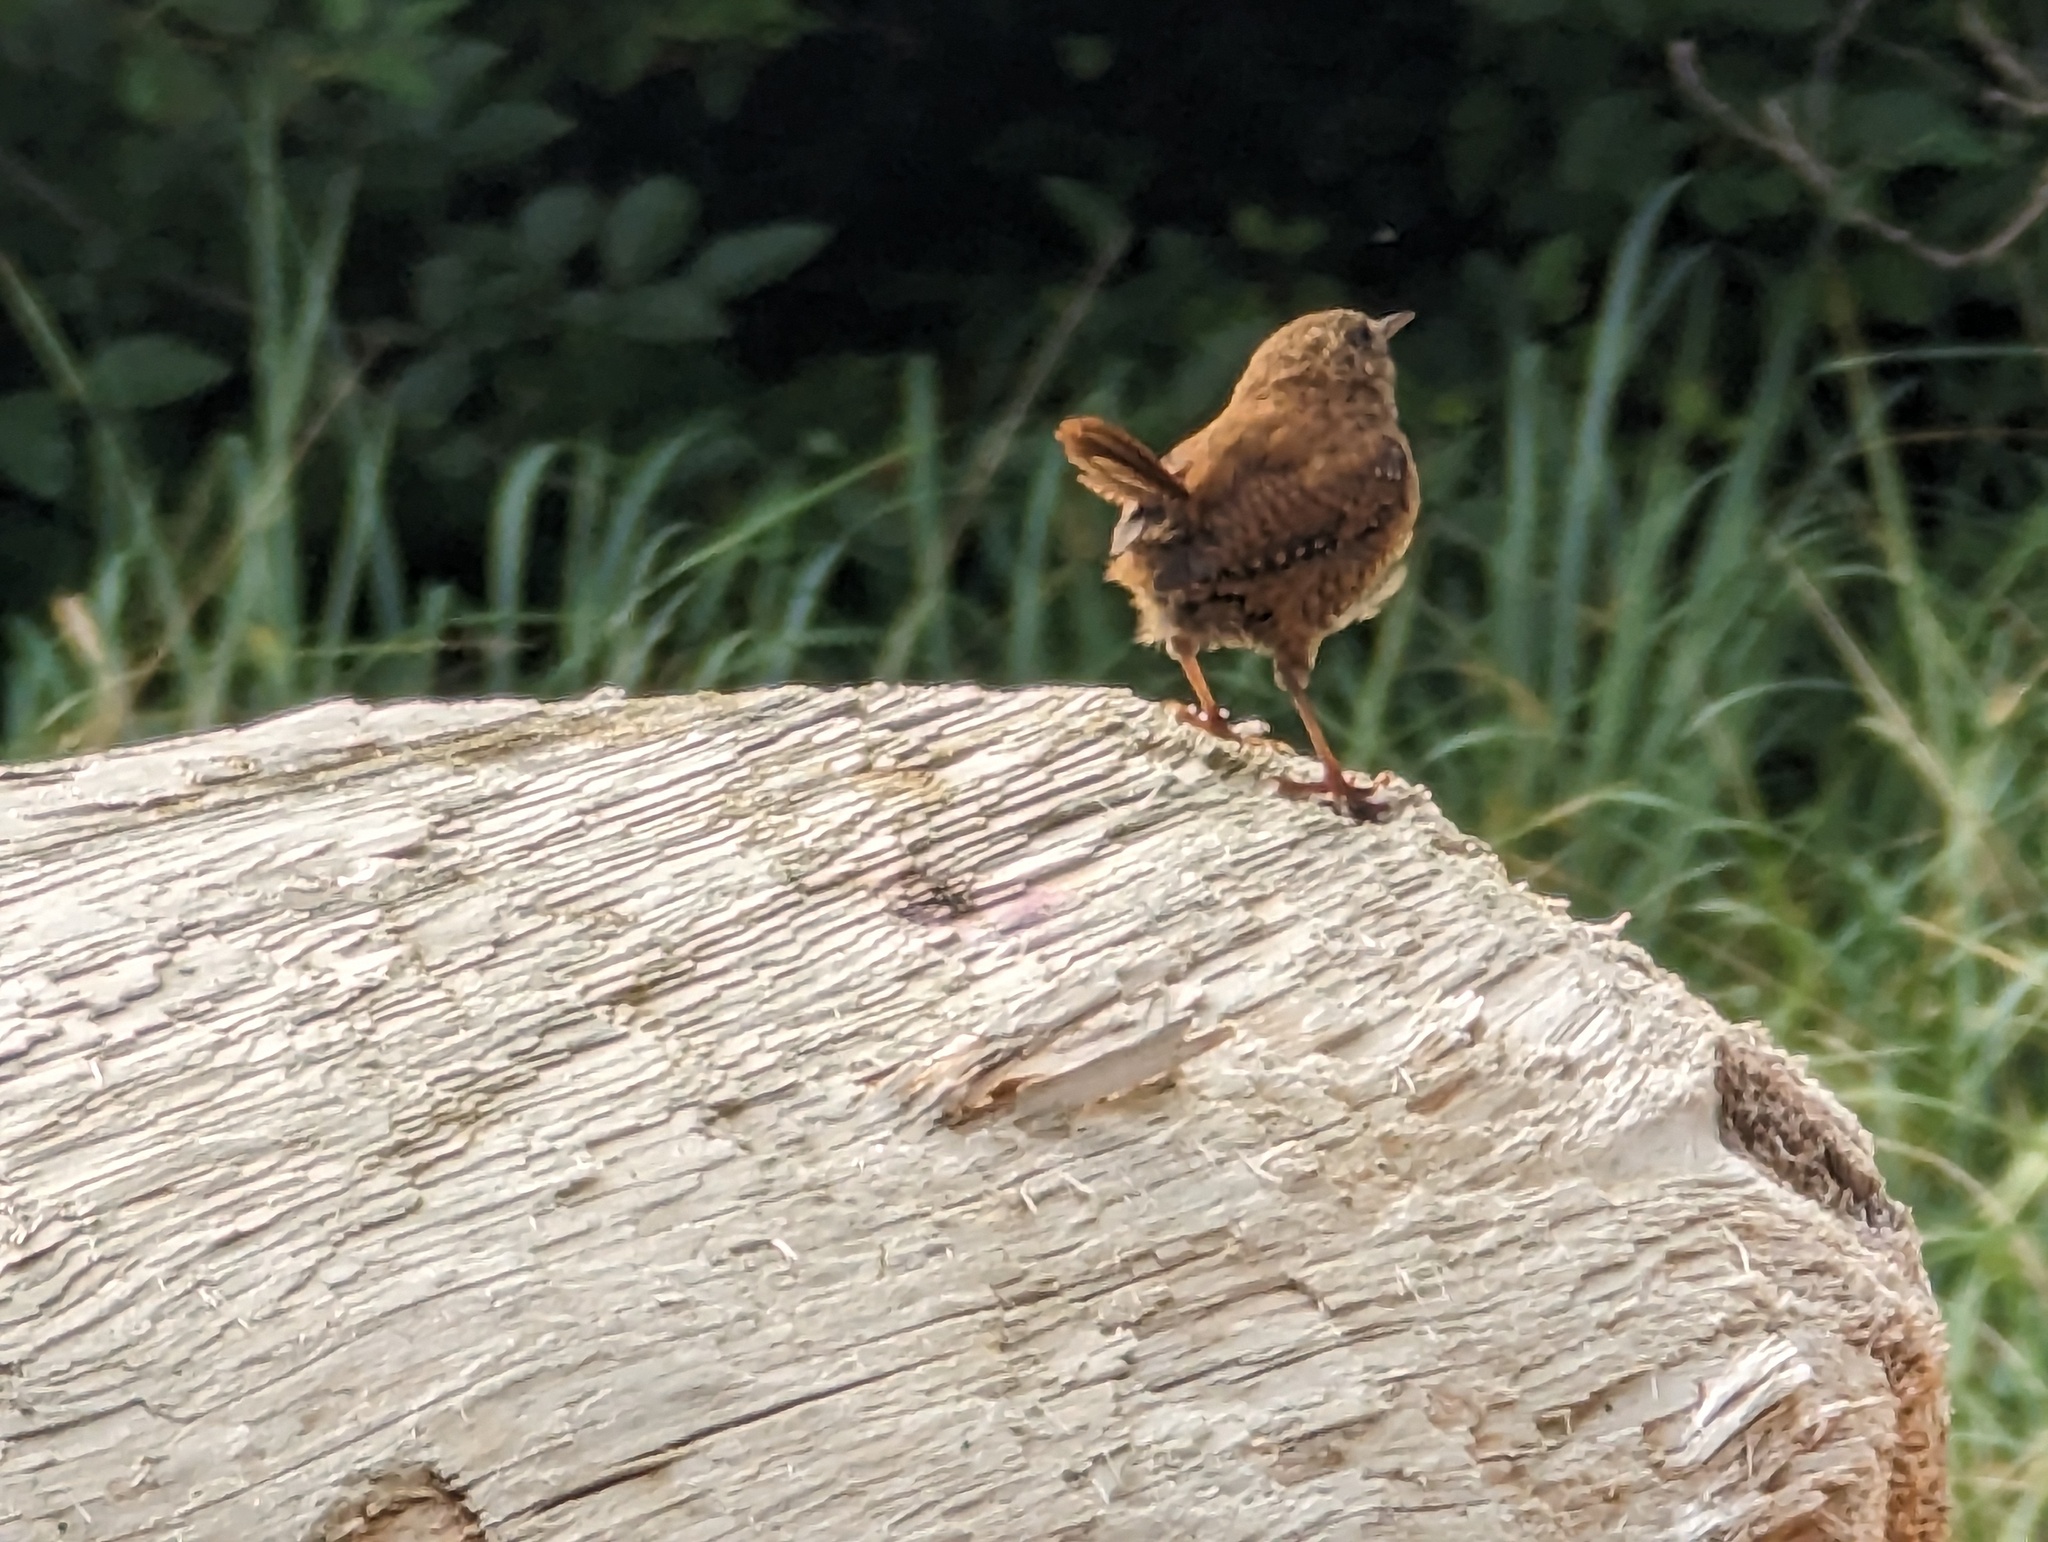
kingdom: Animalia
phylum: Chordata
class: Aves
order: Passeriformes
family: Troglodytidae
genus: Troglodytes
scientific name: Troglodytes pacificus
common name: Pacific wren
